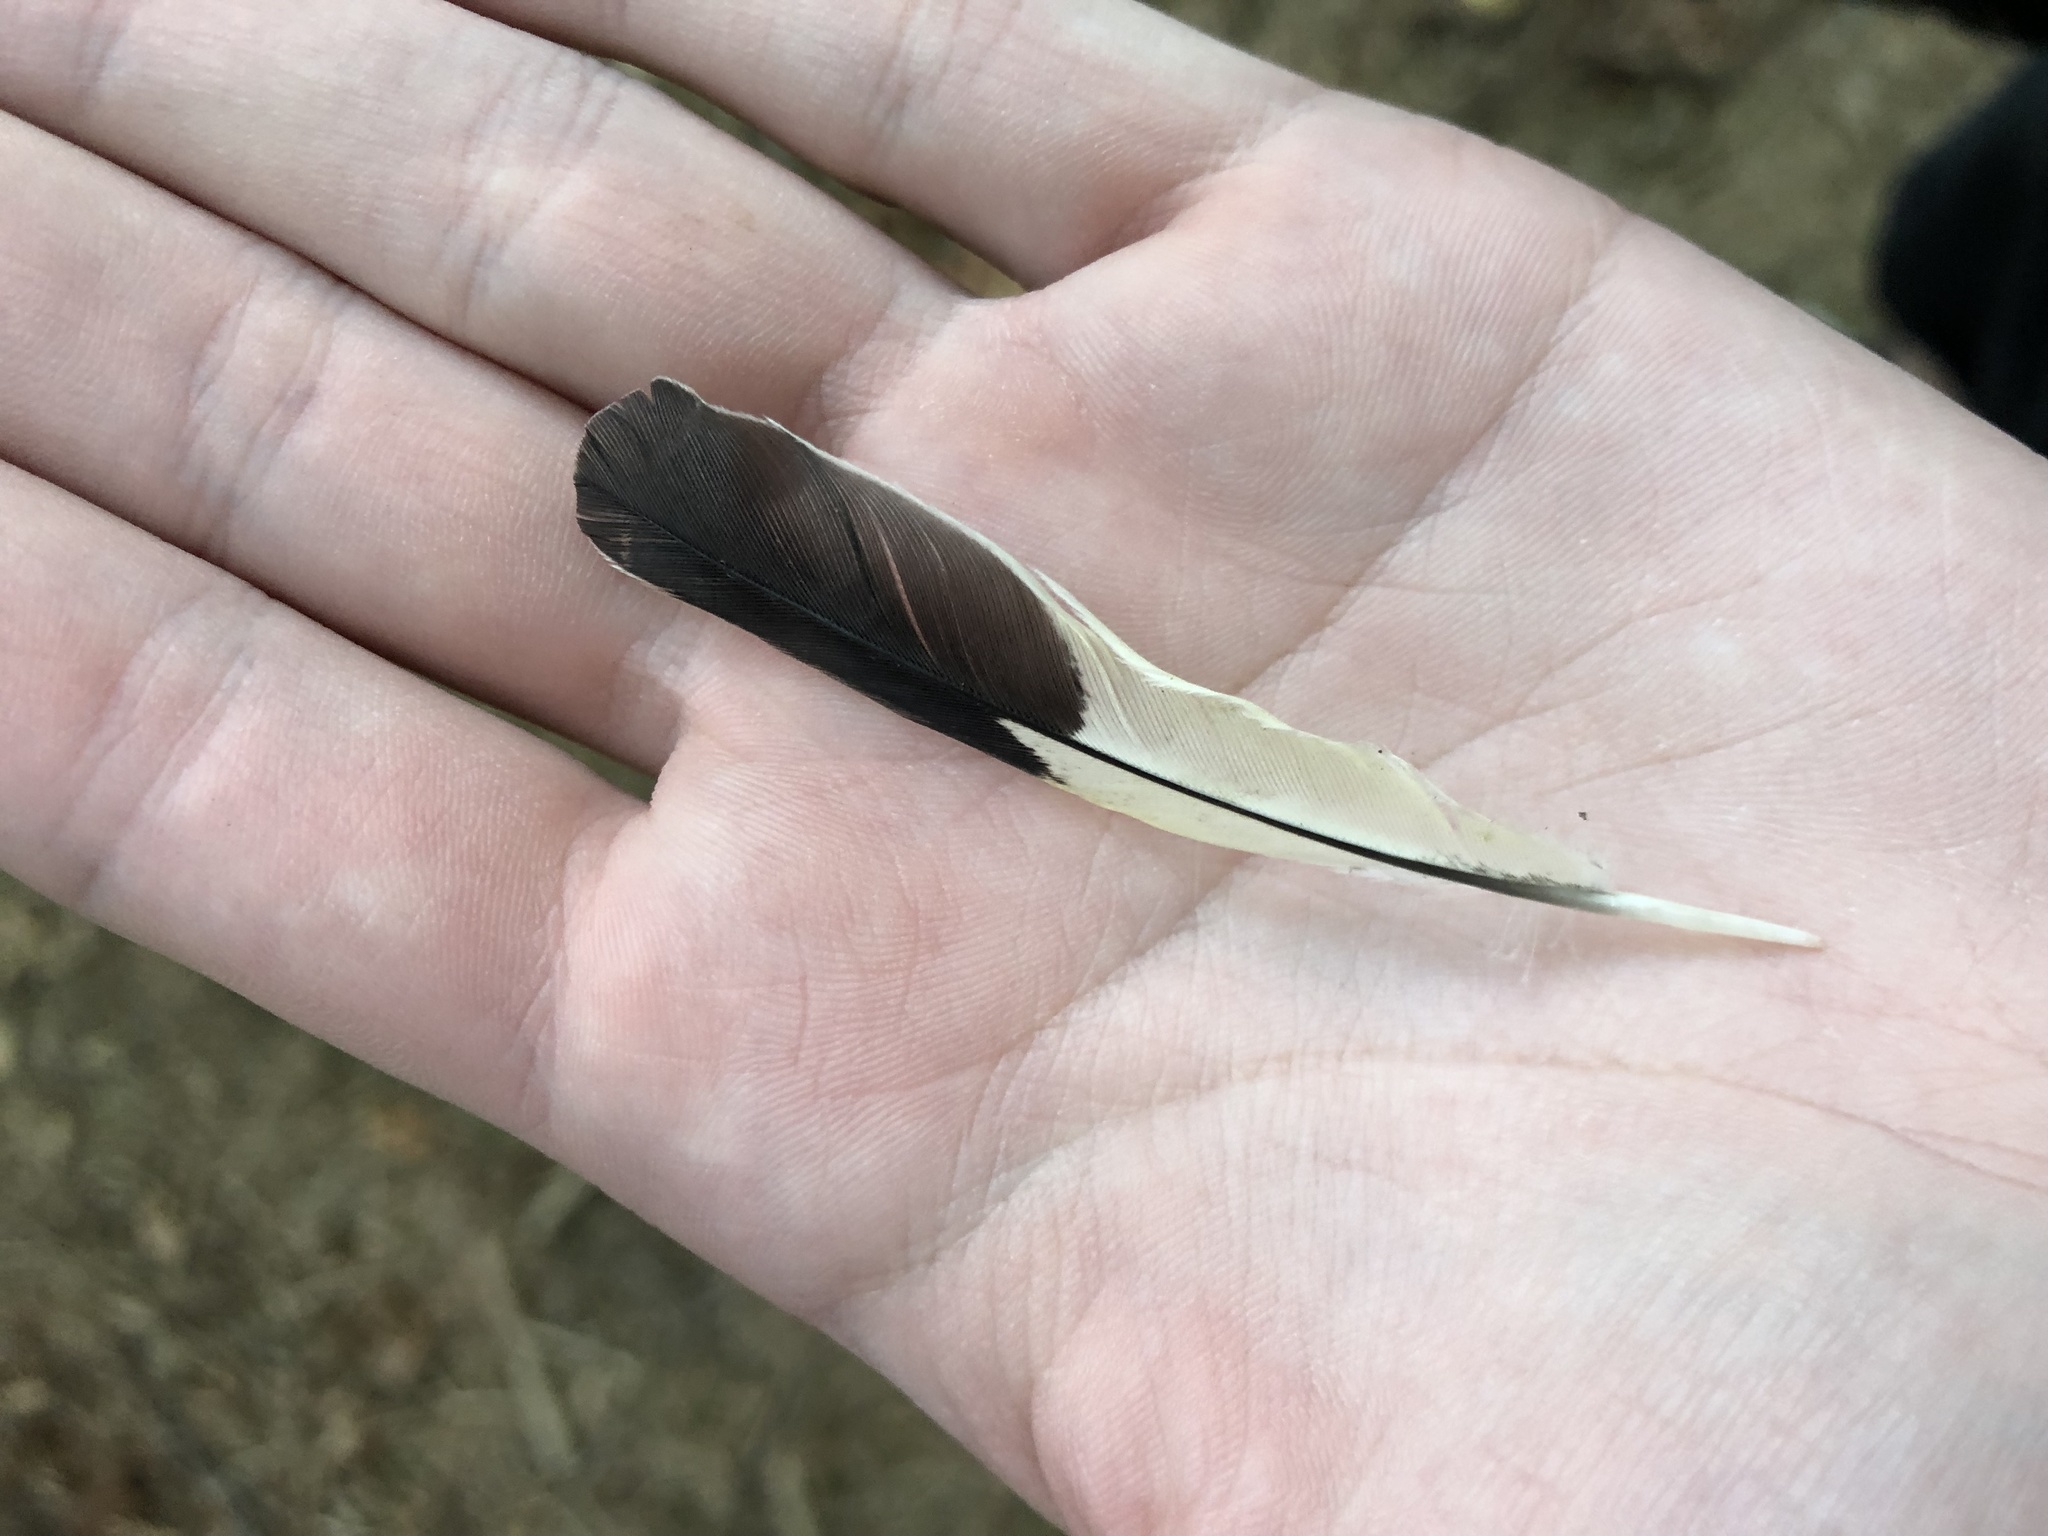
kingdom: Animalia
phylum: Chordata
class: Aves
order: Passeriformes
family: Cardinalidae
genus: Pheucticus
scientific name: Pheucticus melanocephalus
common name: Black-headed grosbeak
